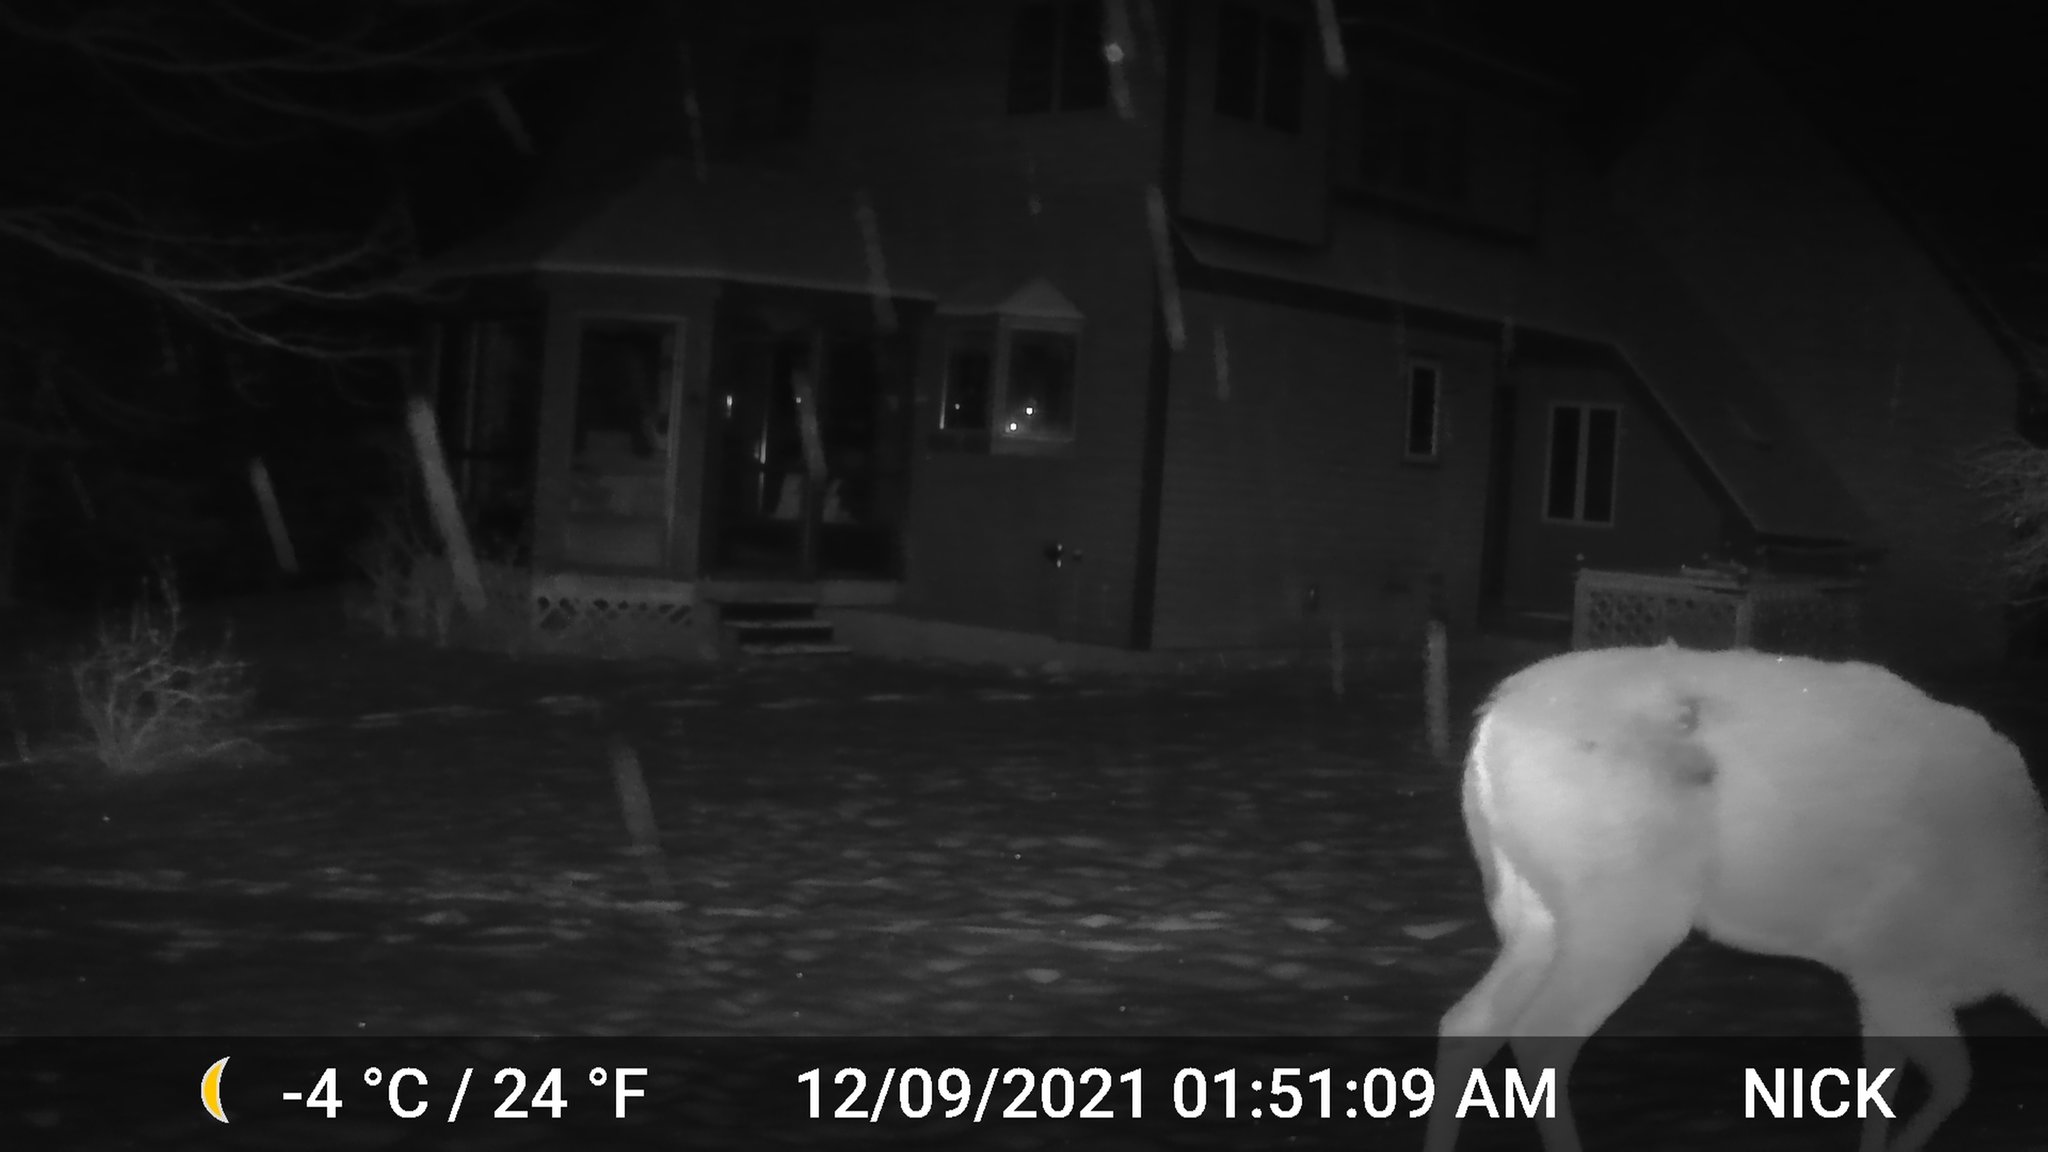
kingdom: Animalia
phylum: Chordata
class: Mammalia
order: Artiodactyla
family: Cervidae
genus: Odocoileus
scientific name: Odocoileus virginianus
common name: White-tailed deer
